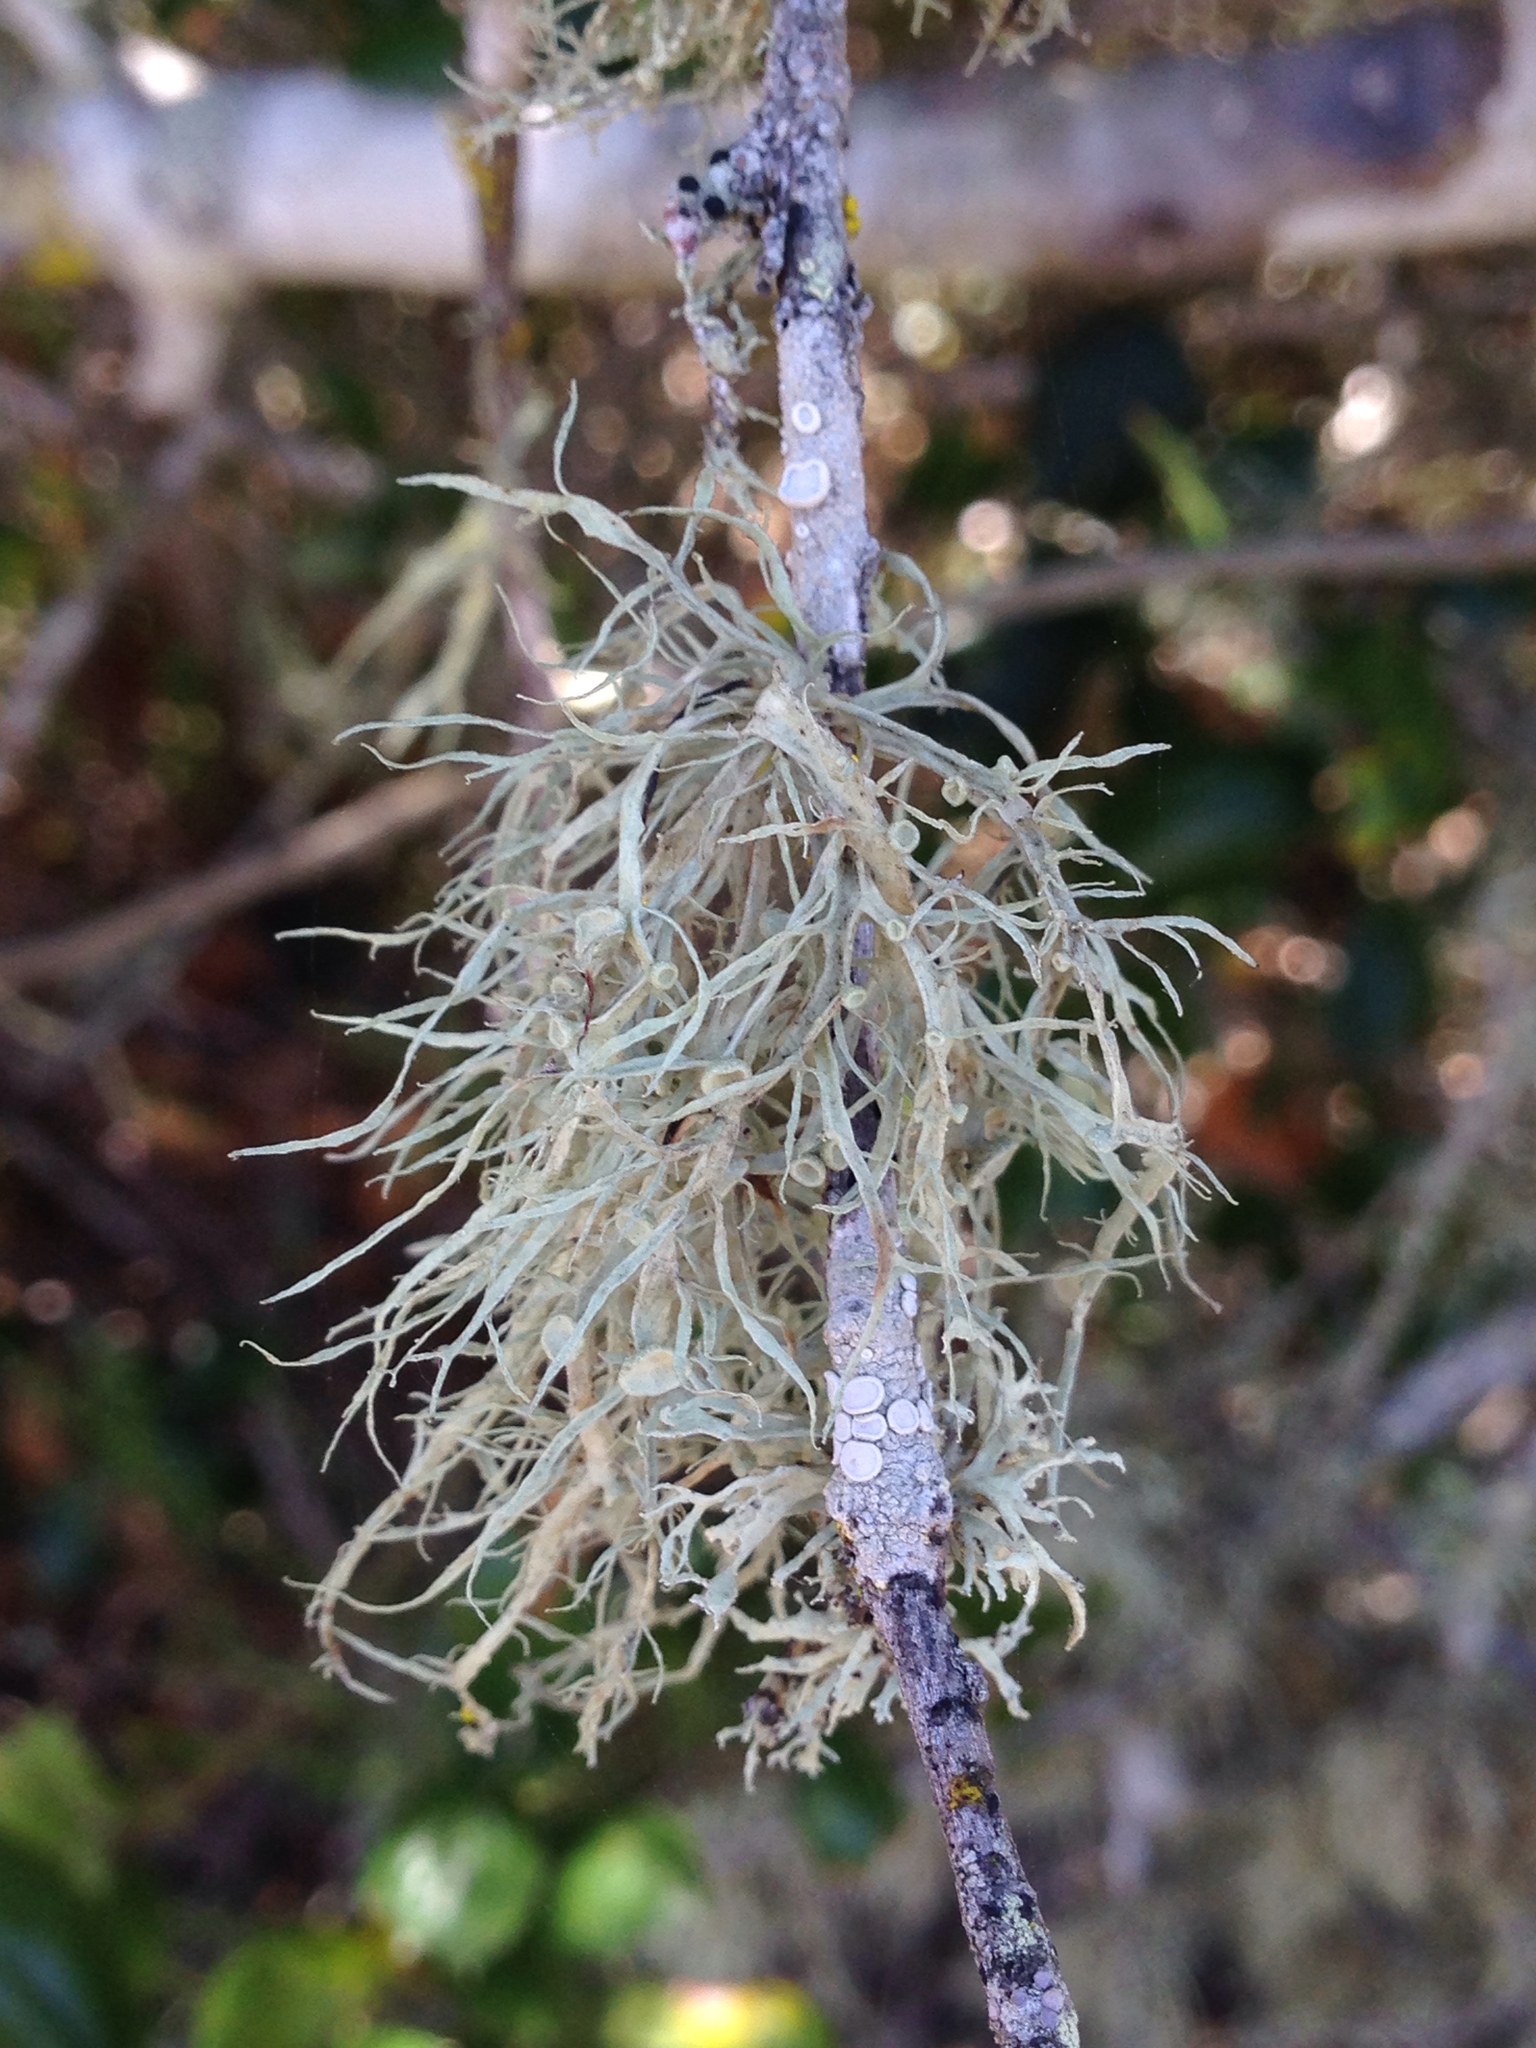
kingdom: Fungi
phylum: Ascomycota
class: Lecanoromycetes
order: Lecanorales
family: Ramalinaceae
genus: Ramalina
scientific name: Ramalina leptocarpha
